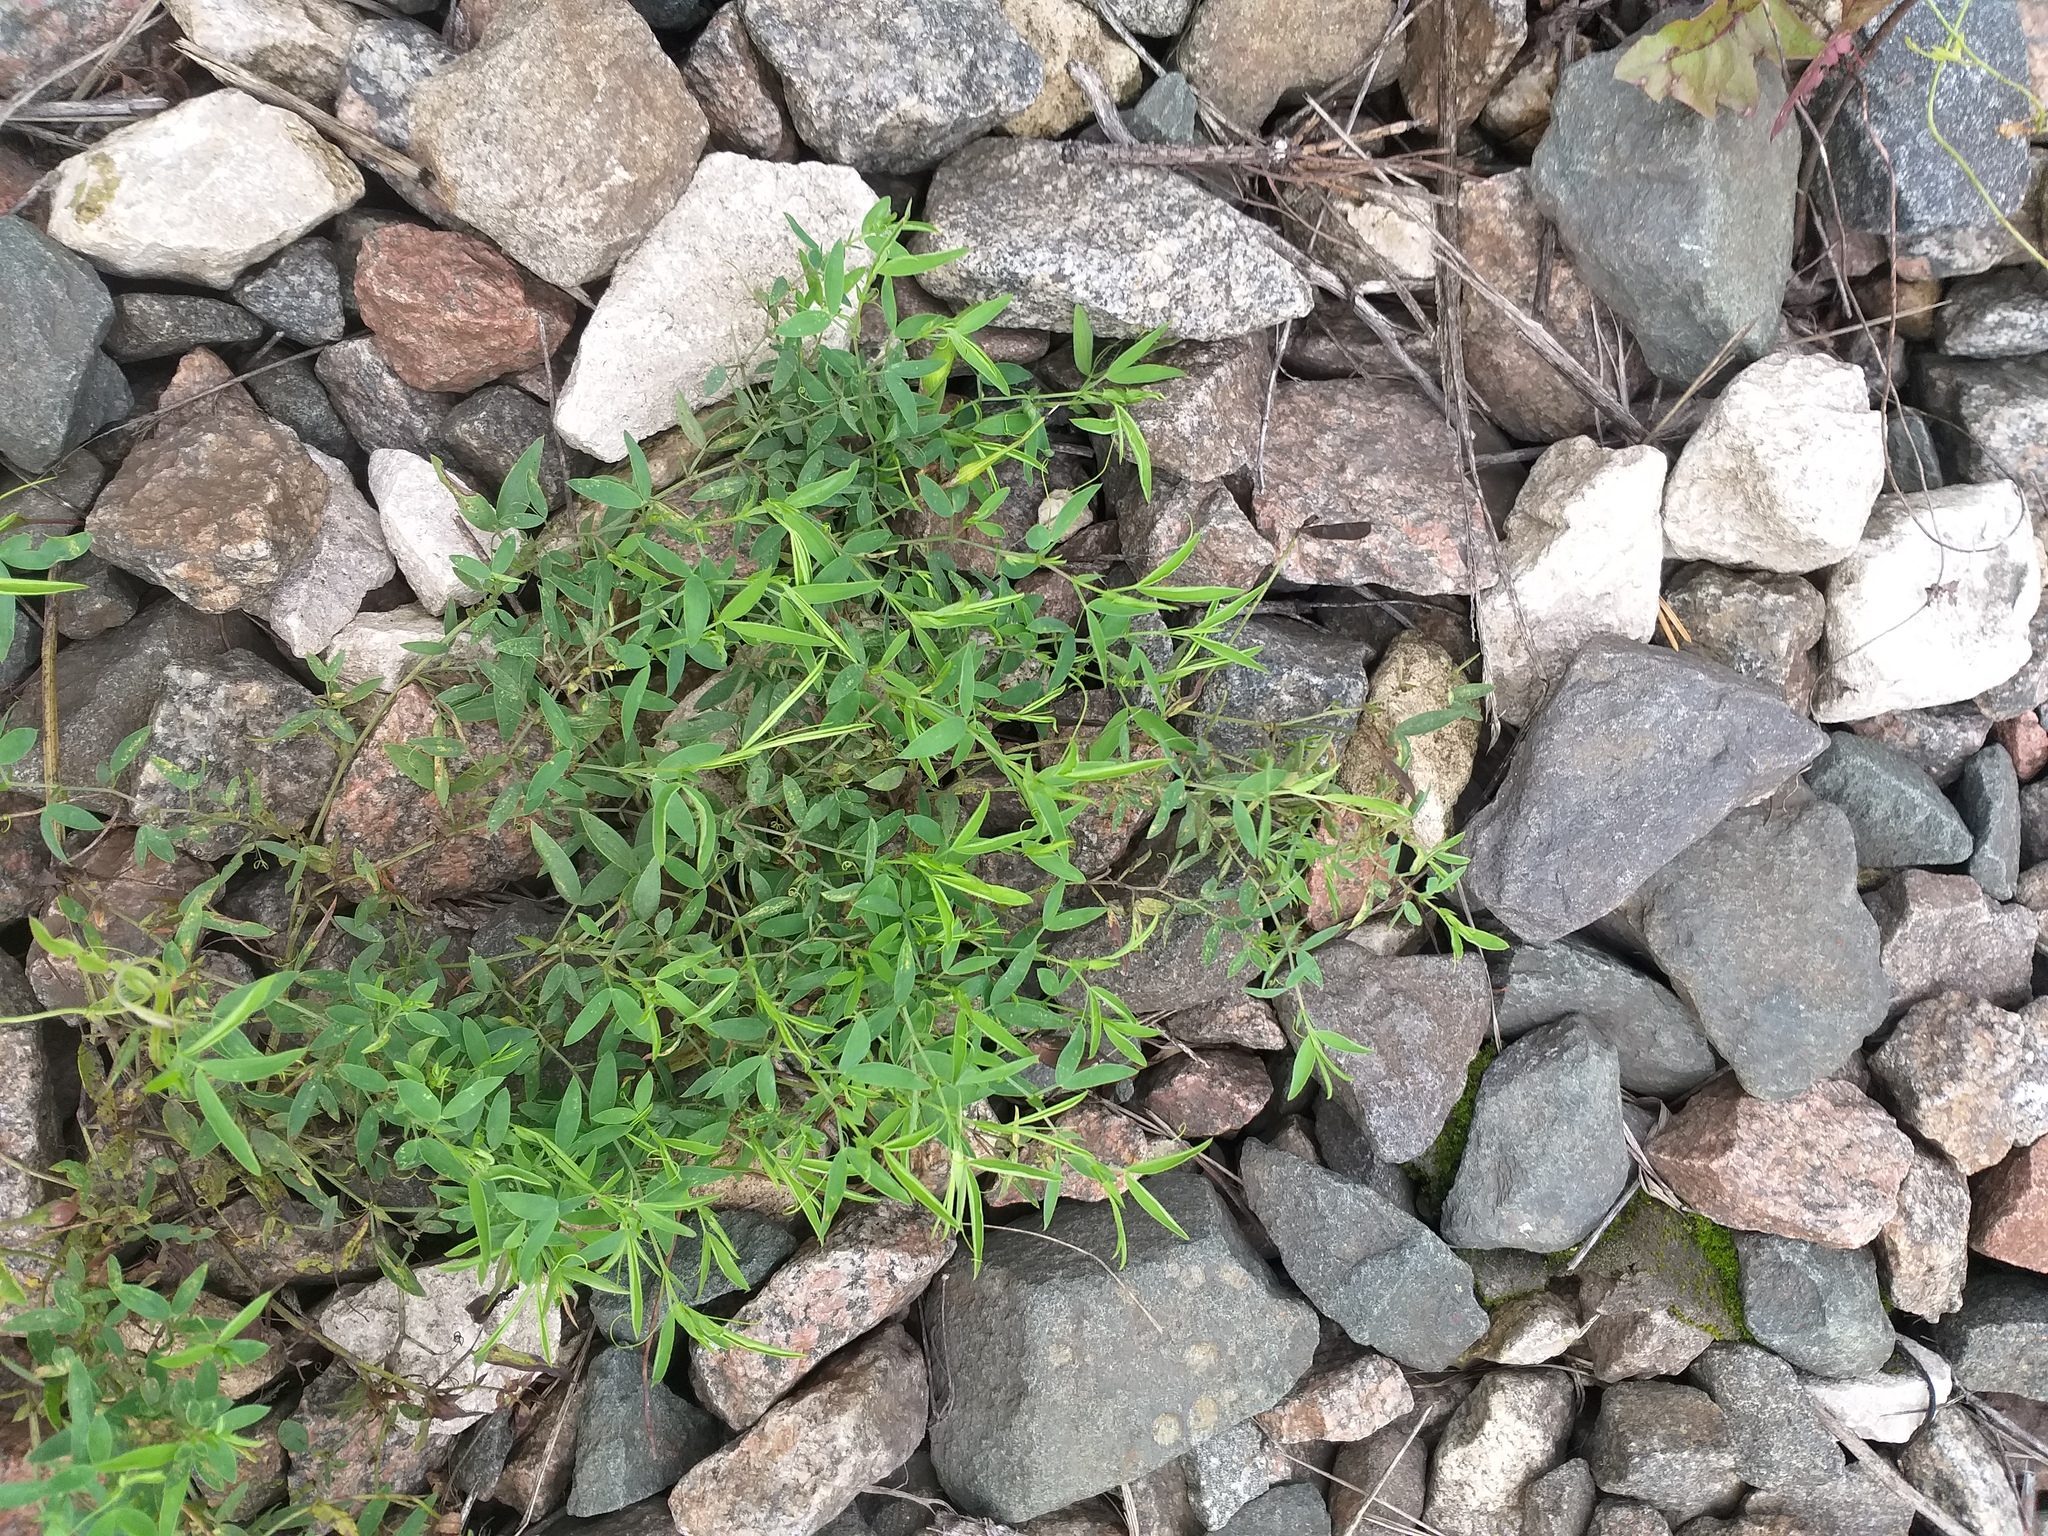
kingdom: Plantae
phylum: Tracheophyta
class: Magnoliopsida
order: Fabales
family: Fabaceae
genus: Lathyrus
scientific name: Lathyrus pratensis
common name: Meadow vetchling
